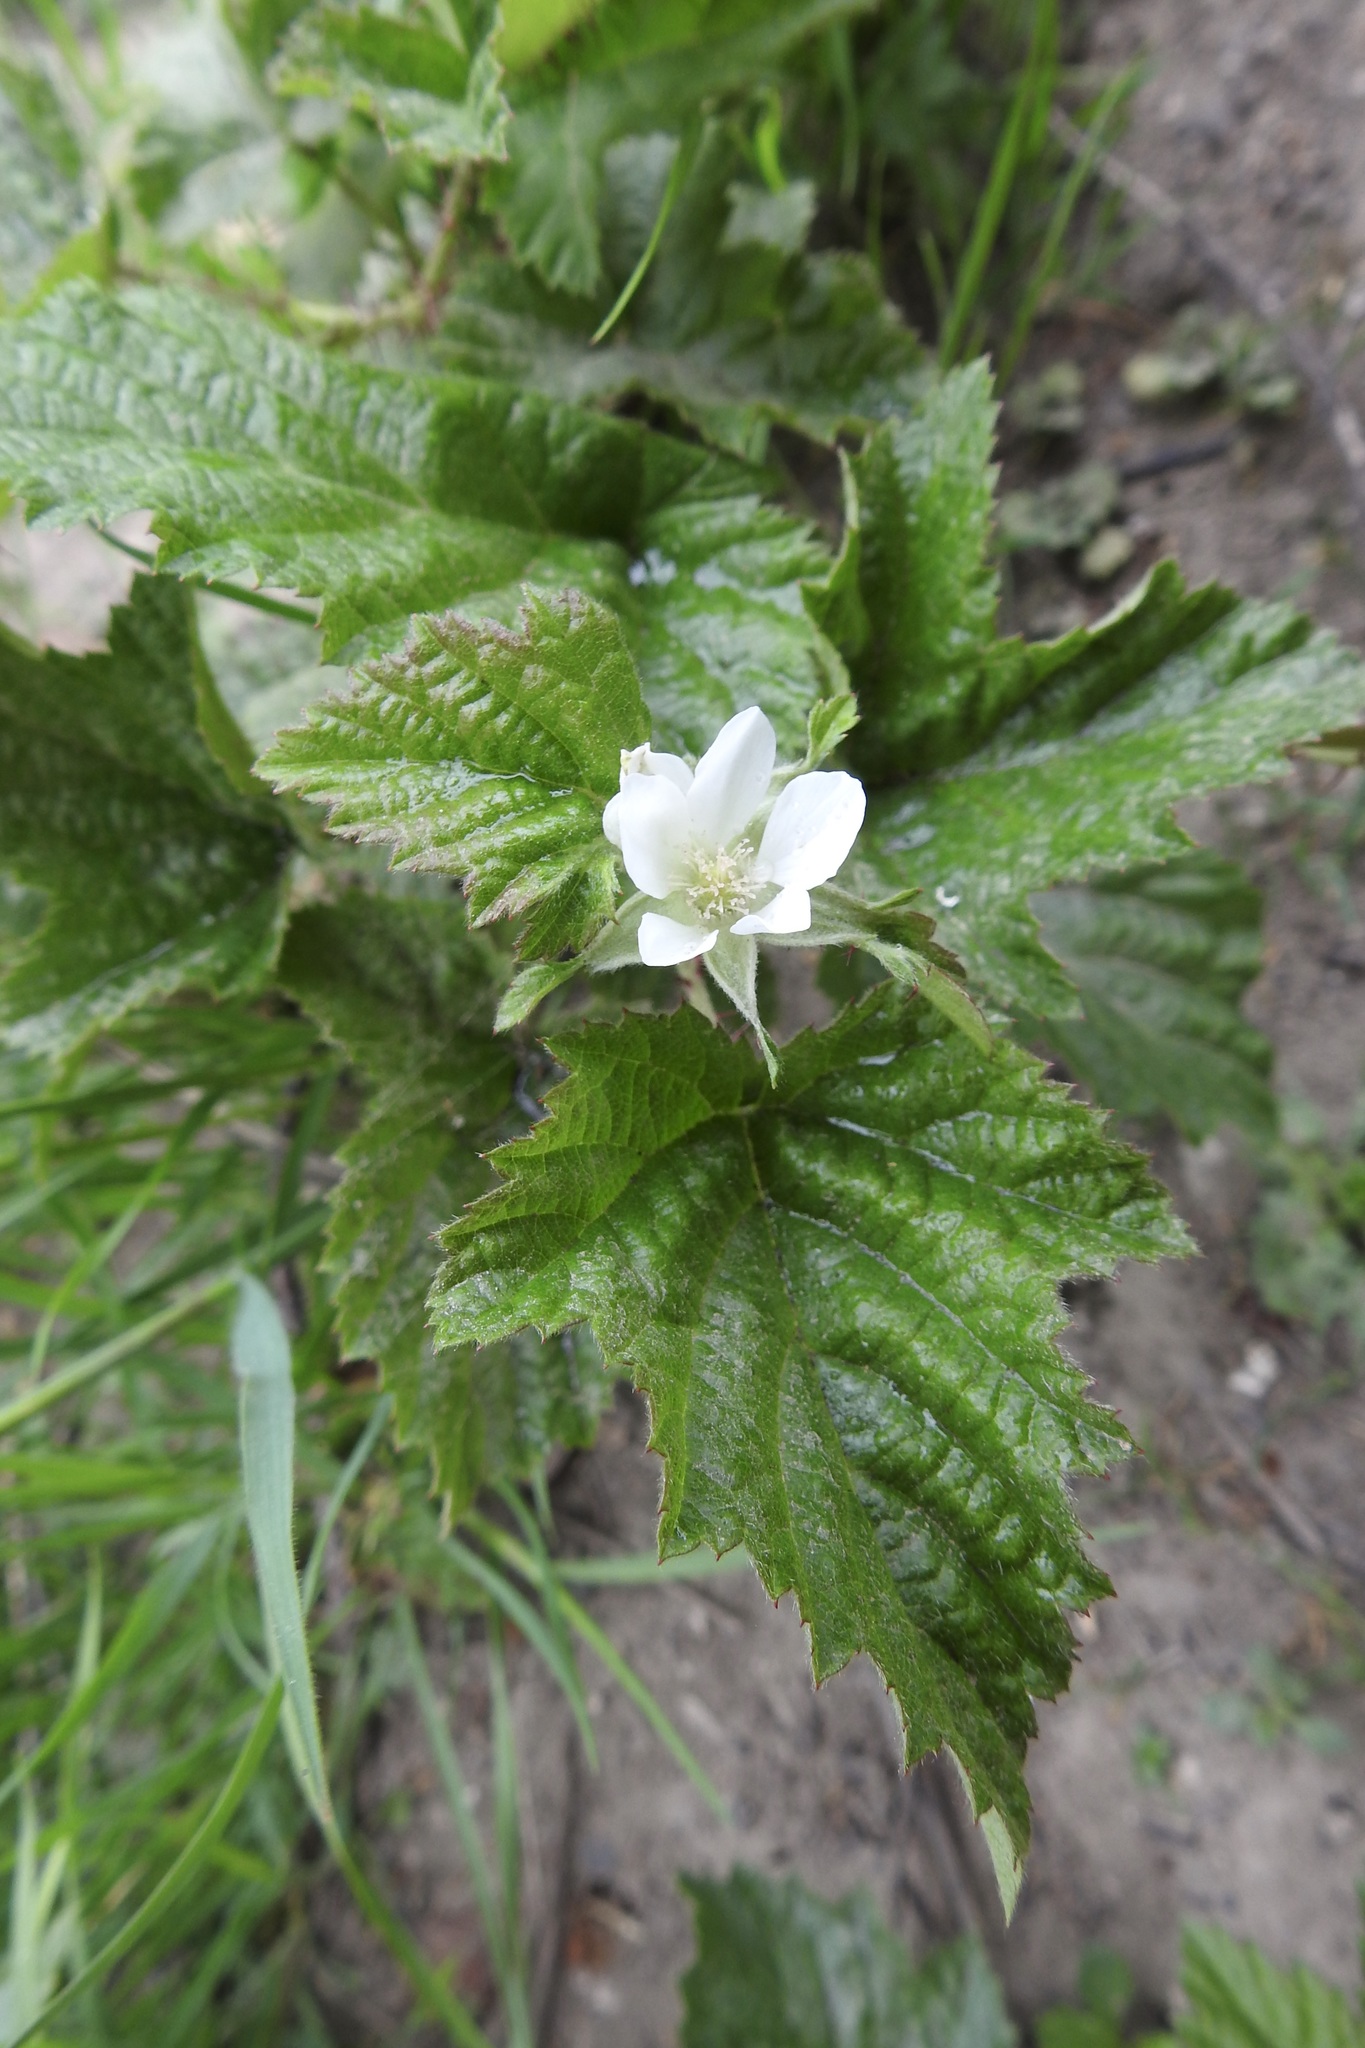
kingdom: Plantae
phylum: Tracheophyta
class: Magnoliopsida
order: Rosales
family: Rosaceae
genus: Rubus
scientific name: Rubus ursinus
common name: Pacific blackberry
